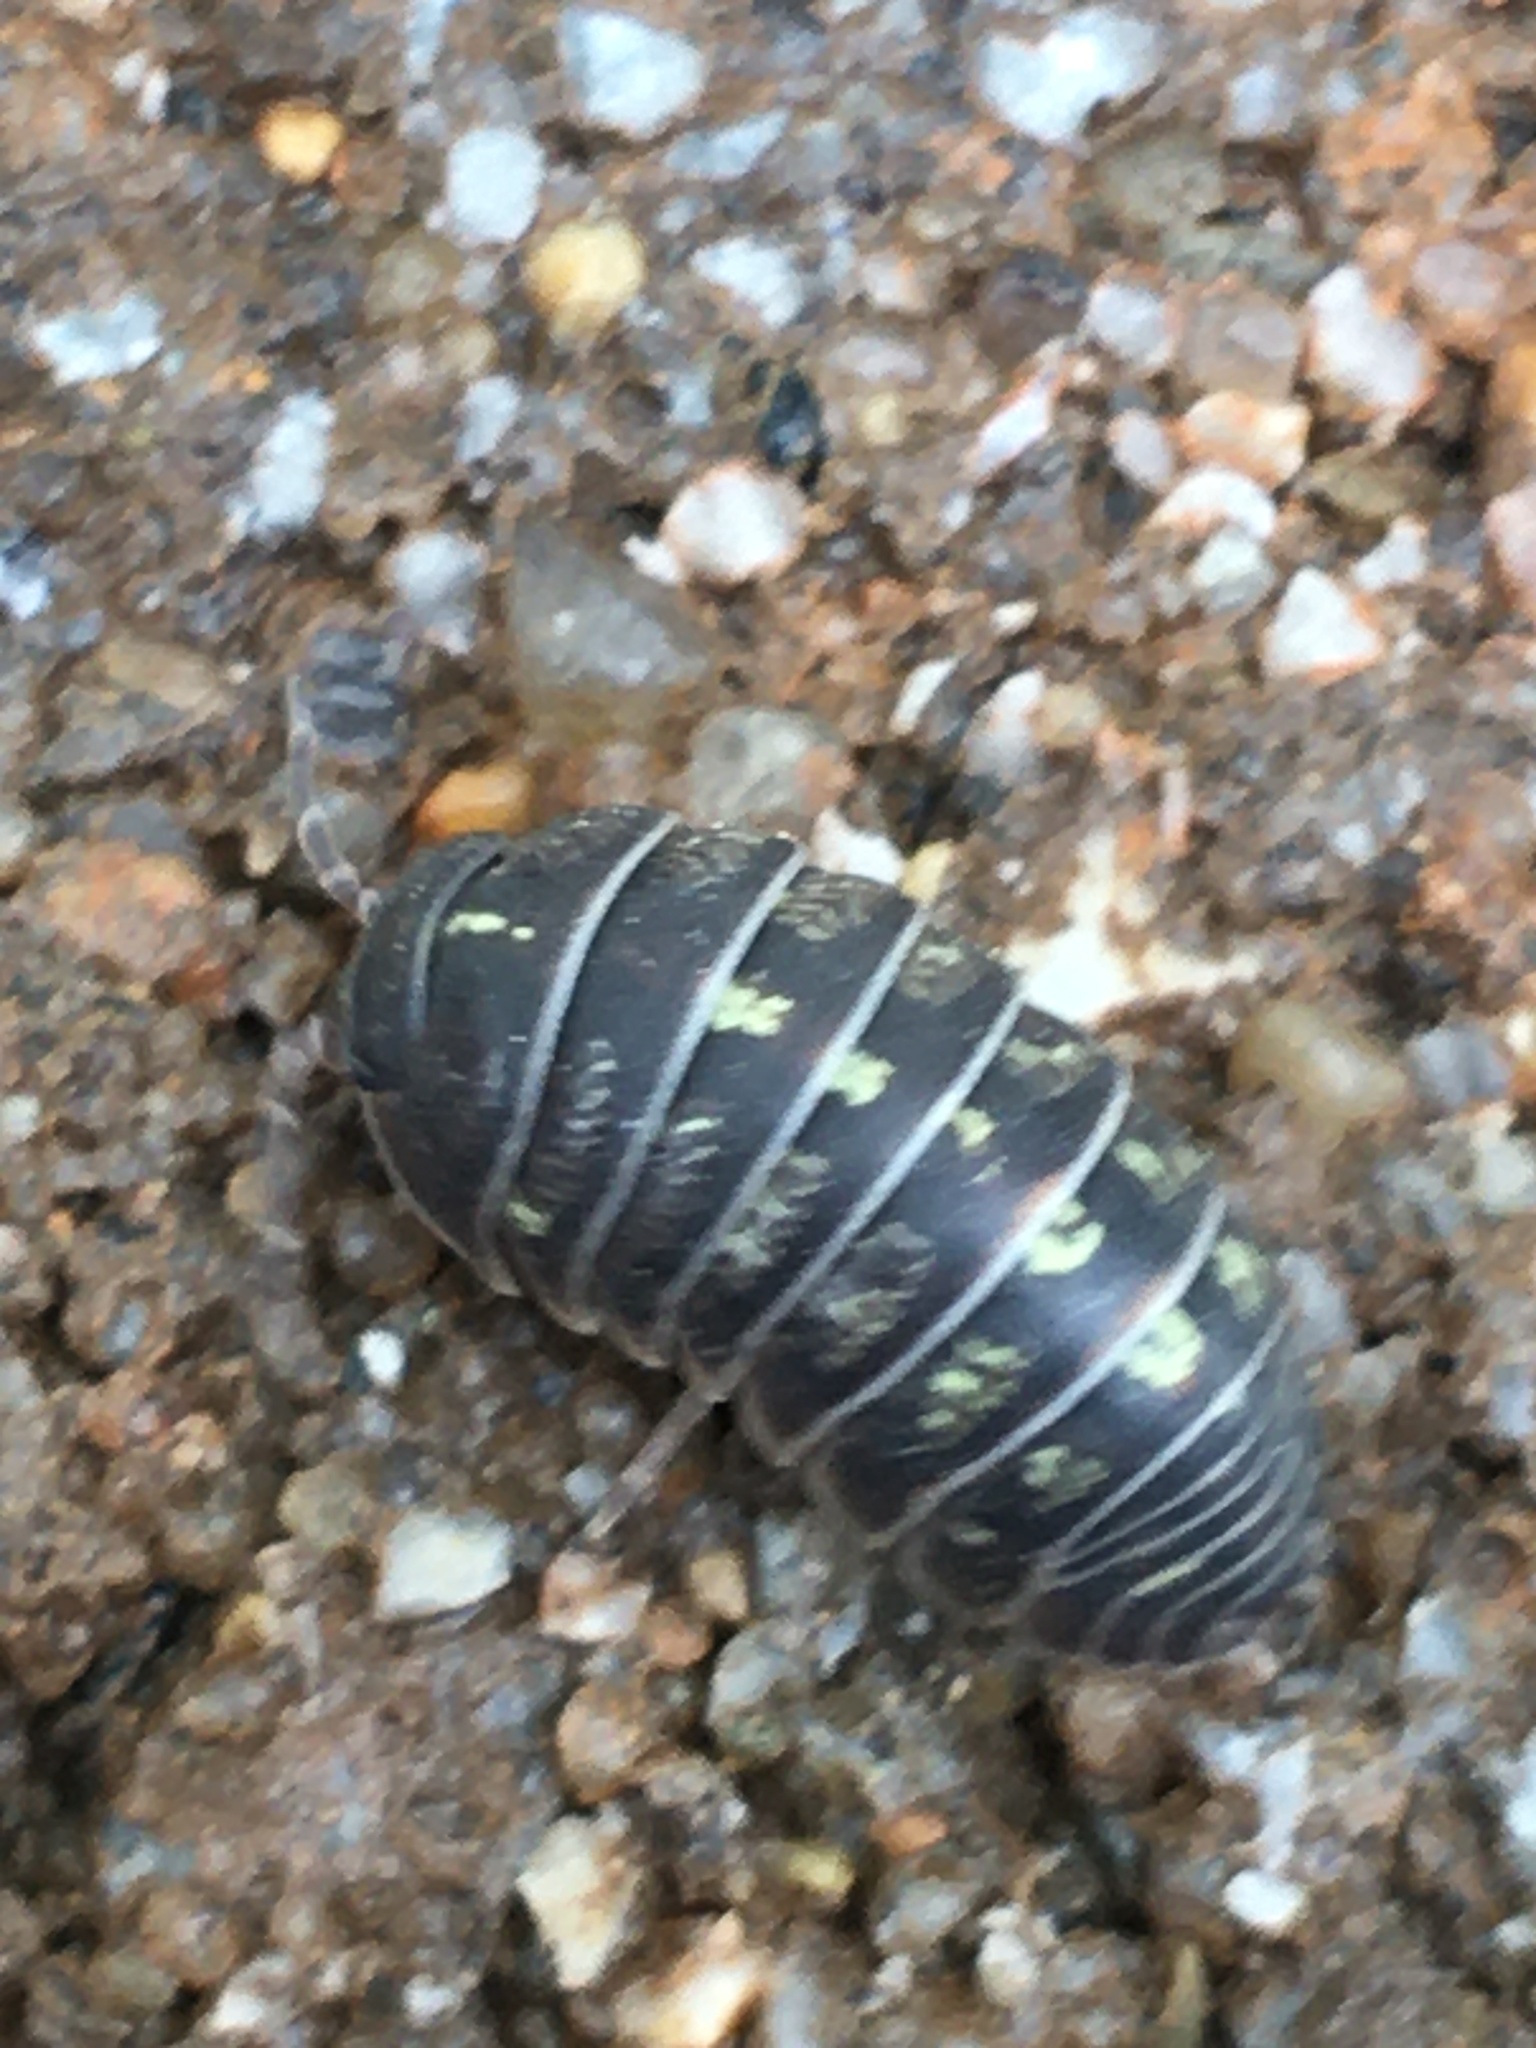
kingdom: Animalia
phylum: Arthropoda
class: Malacostraca
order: Isopoda
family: Armadillidiidae
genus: Armadillidium
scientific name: Armadillidium vulgare
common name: Common pill woodlouse
